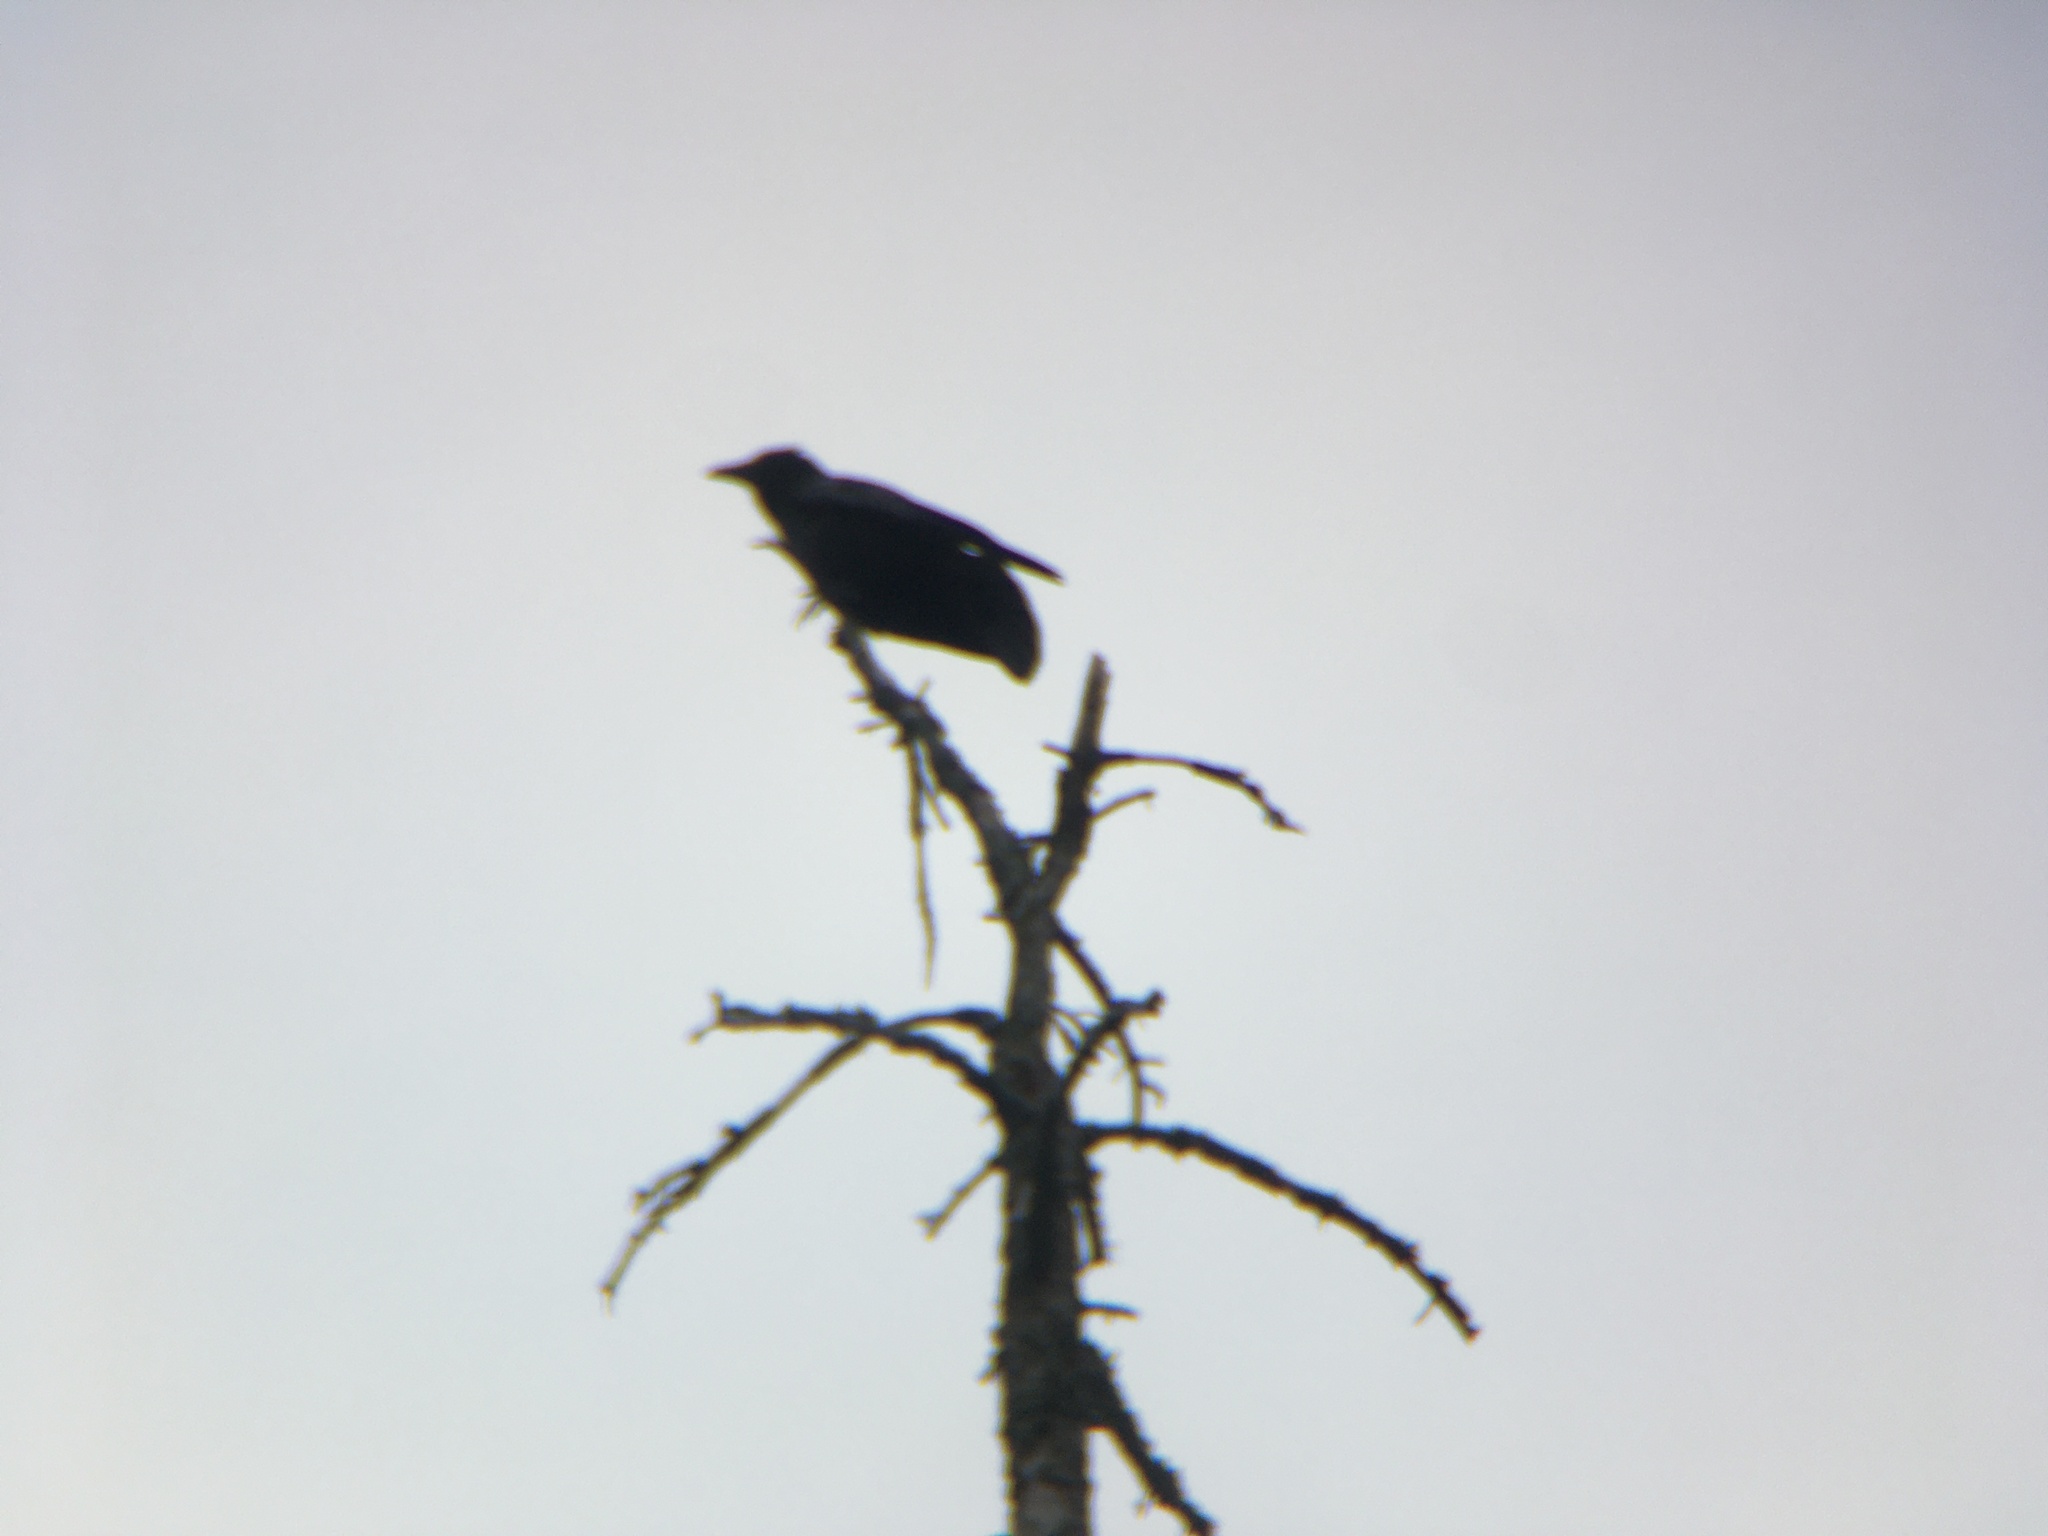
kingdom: Animalia
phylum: Chordata
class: Aves
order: Passeriformes
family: Corvidae
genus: Corvus
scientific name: Corvus brachyrhynchos
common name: American crow
